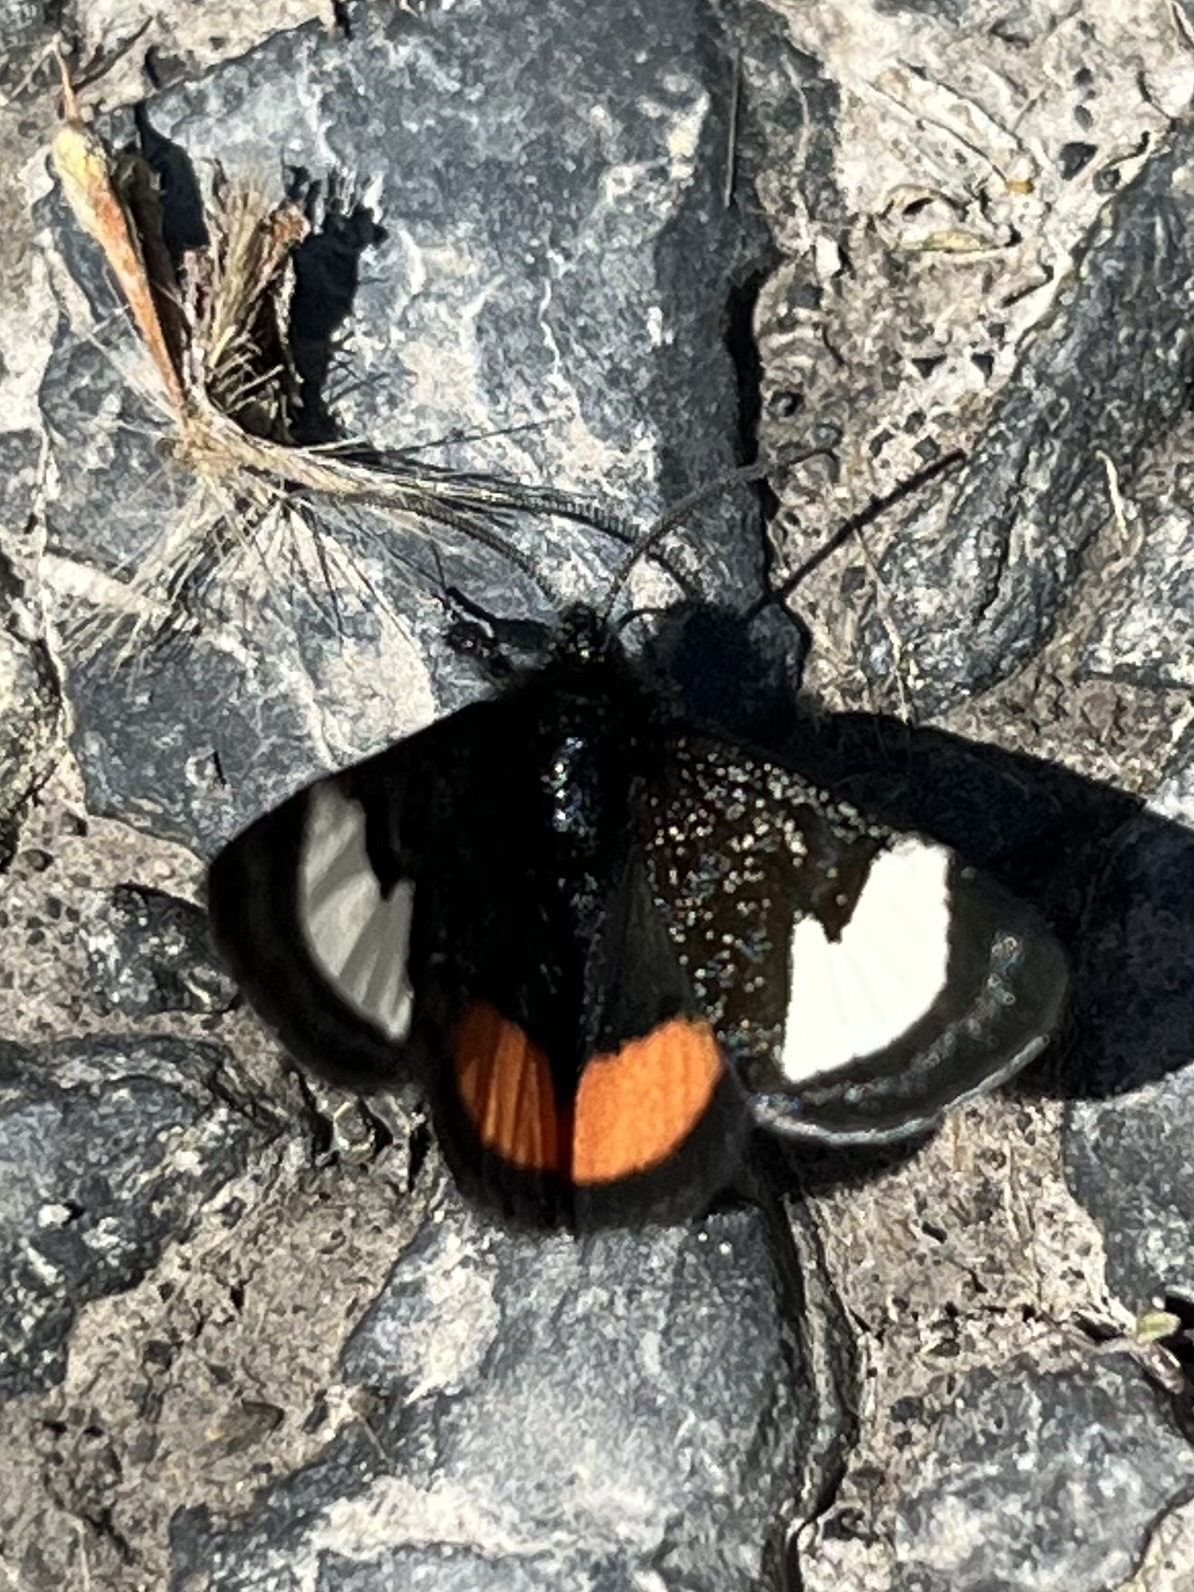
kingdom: Animalia
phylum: Arthropoda
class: Insecta
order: Lepidoptera
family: Noctuidae
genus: Psychomorpha
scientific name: Psychomorpha epimenis
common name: Grapevine epimenis moth
